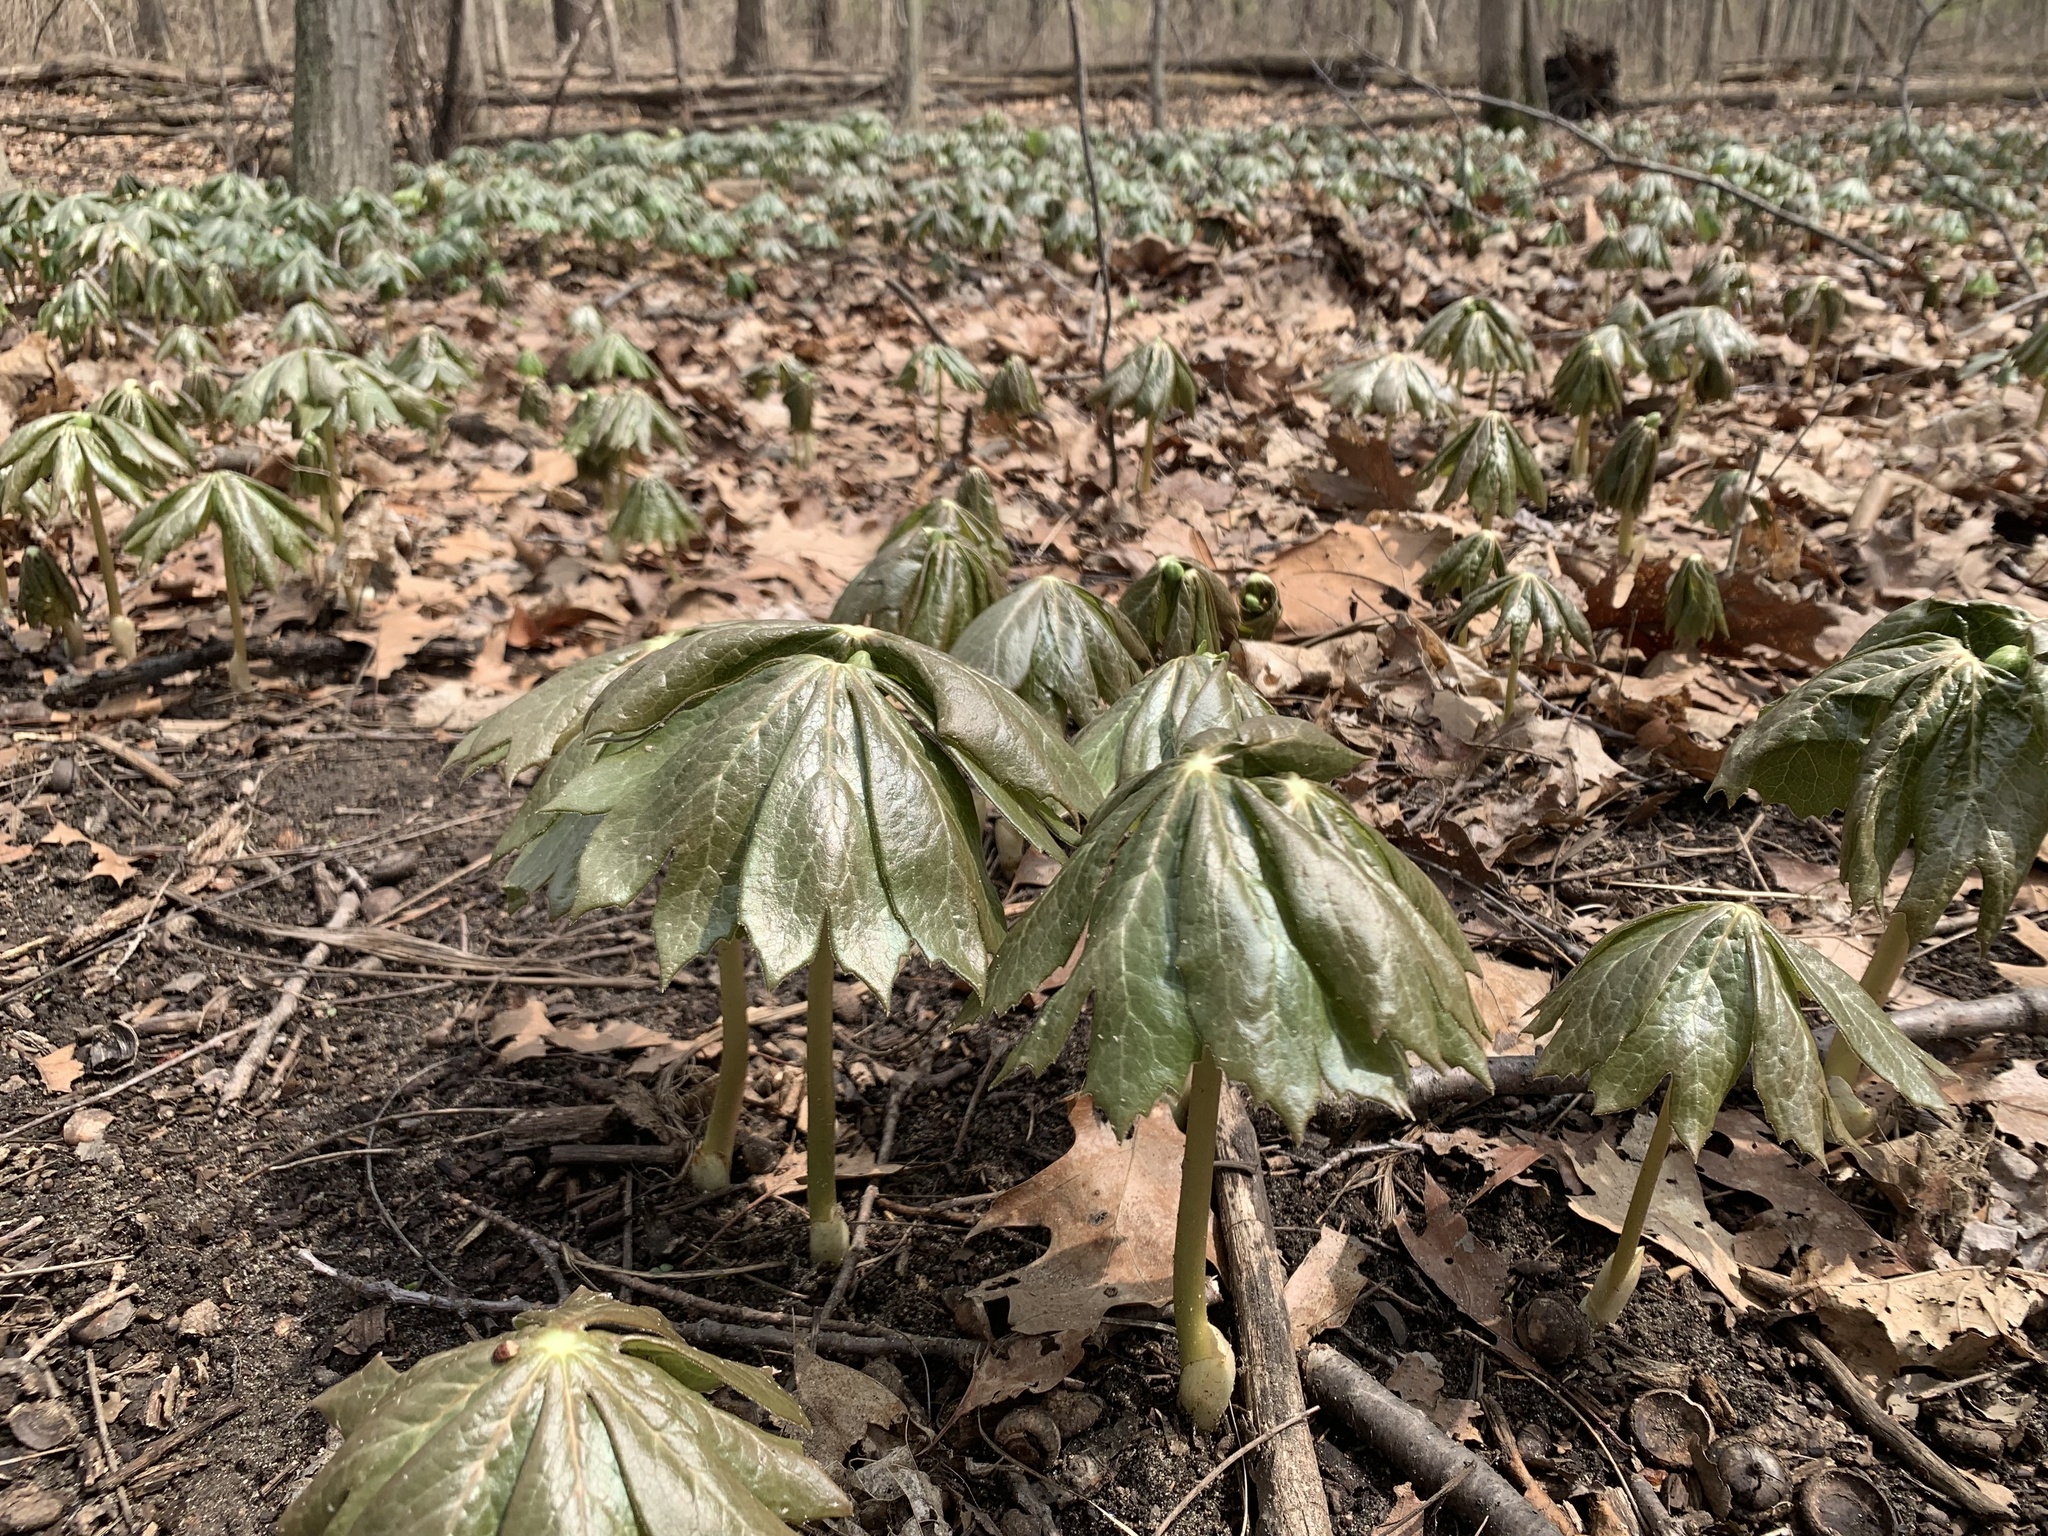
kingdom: Plantae
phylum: Tracheophyta
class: Magnoliopsida
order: Ranunculales
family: Berberidaceae
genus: Podophyllum
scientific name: Podophyllum peltatum
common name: Wild mandrake
